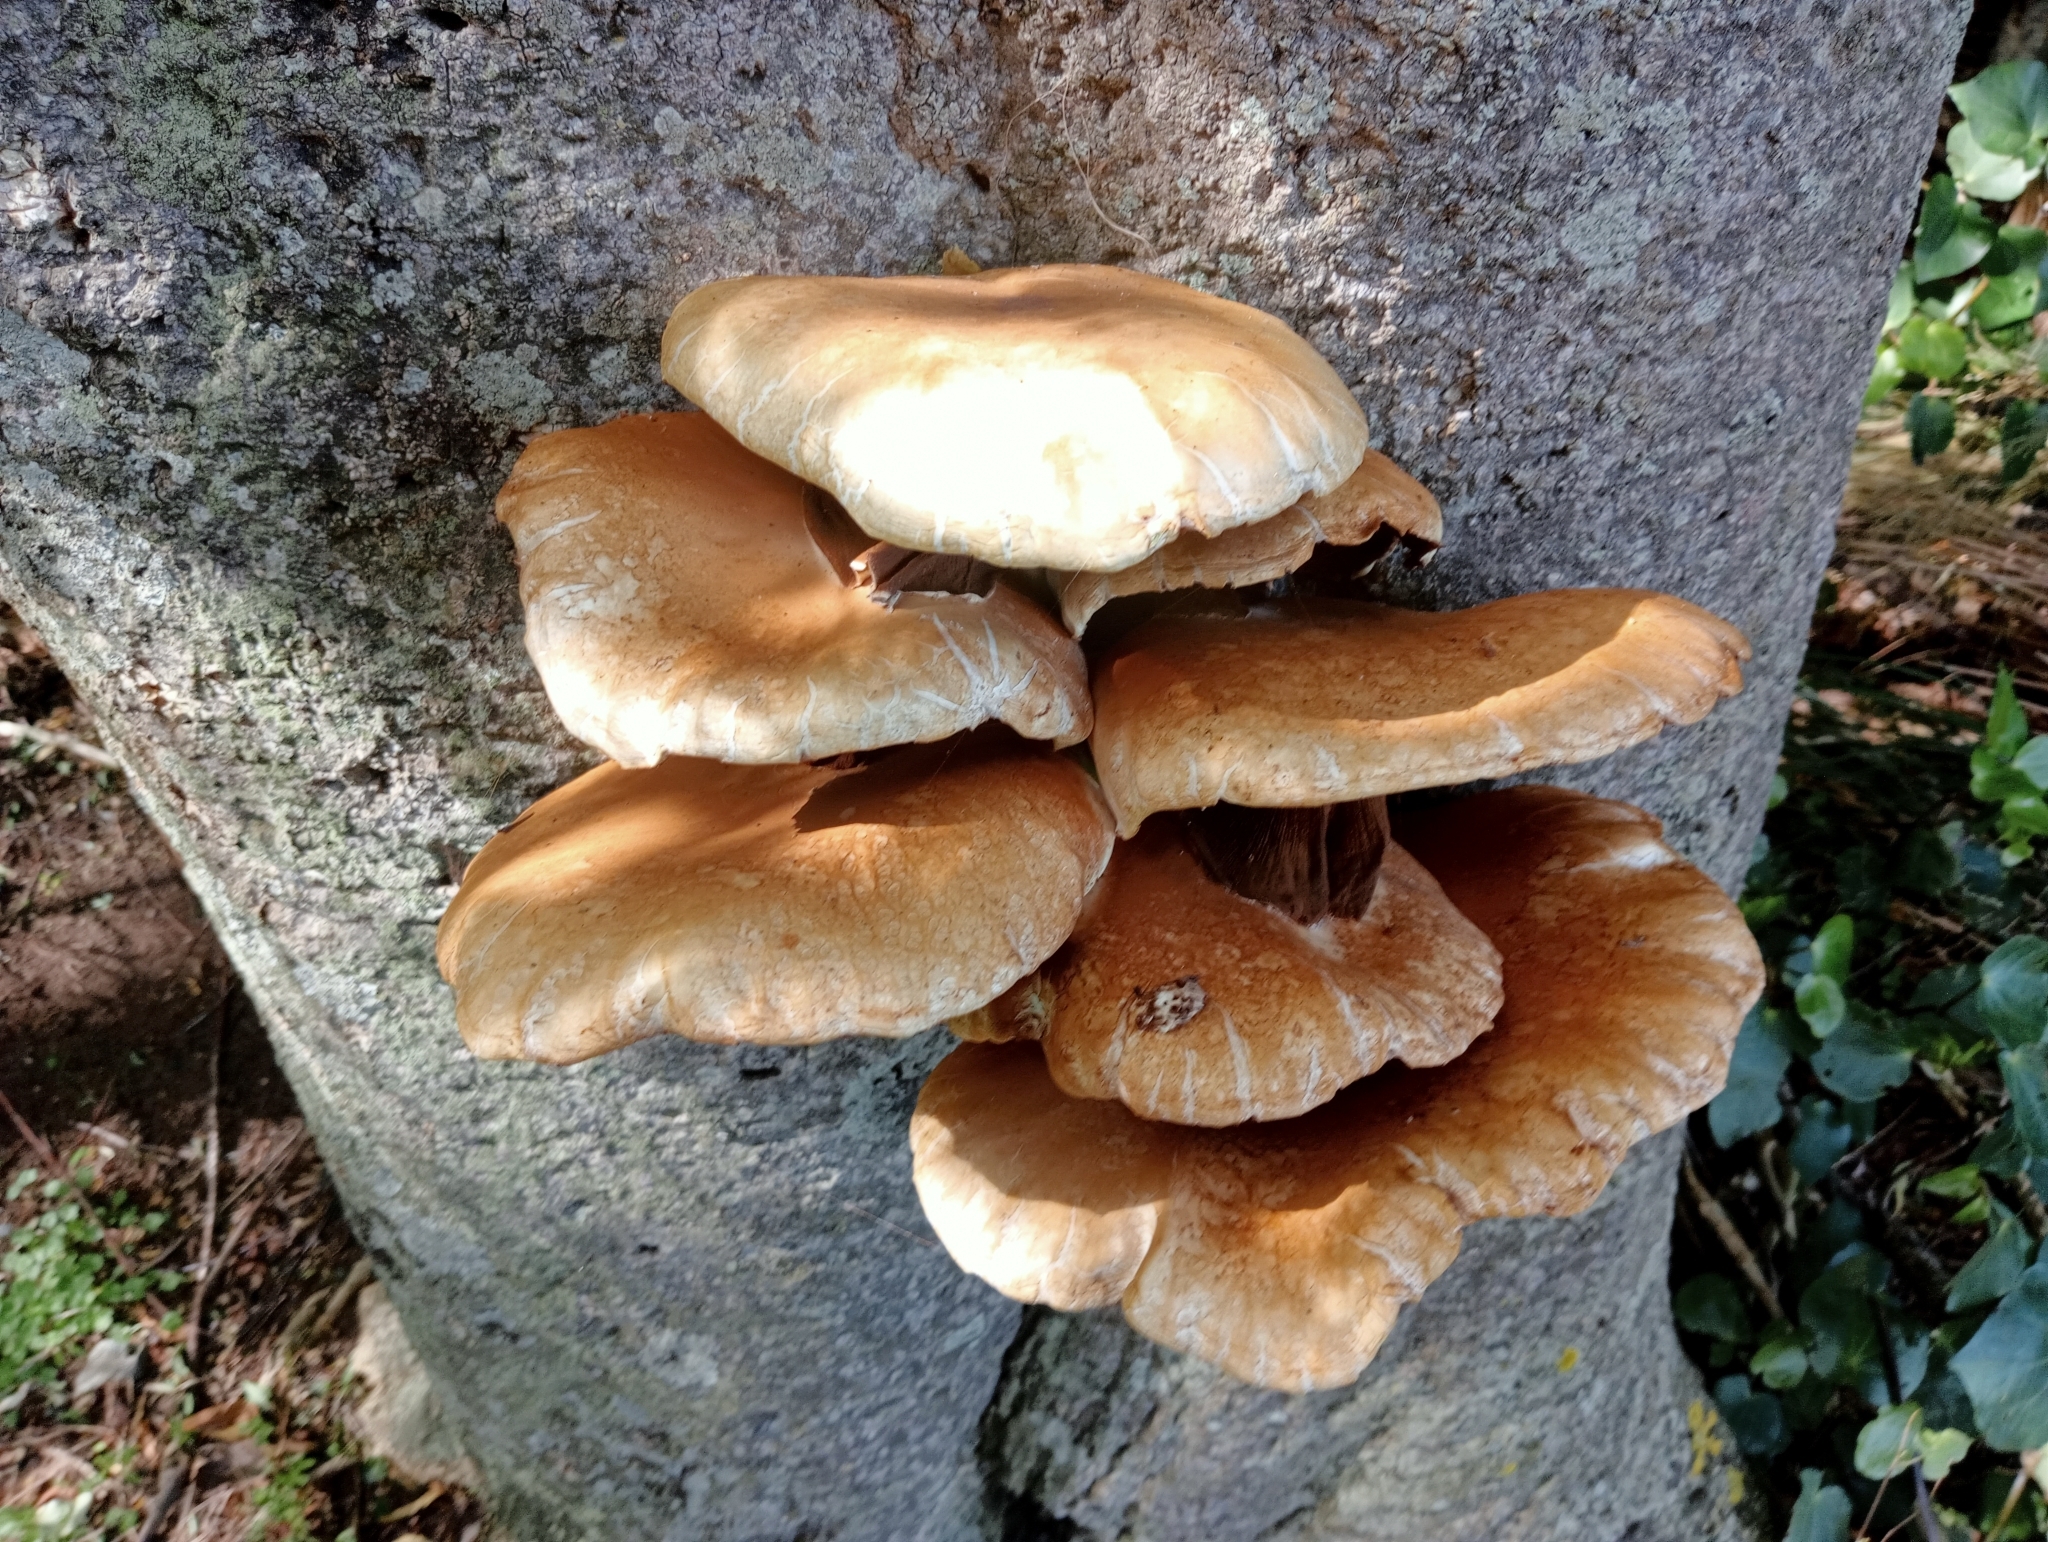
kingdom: Fungi
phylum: Basidiomycota
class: Agaricomycetes
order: Agaricales
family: Tubariaceae
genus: Cyclocybe
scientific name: Cyclocybe parasitica
